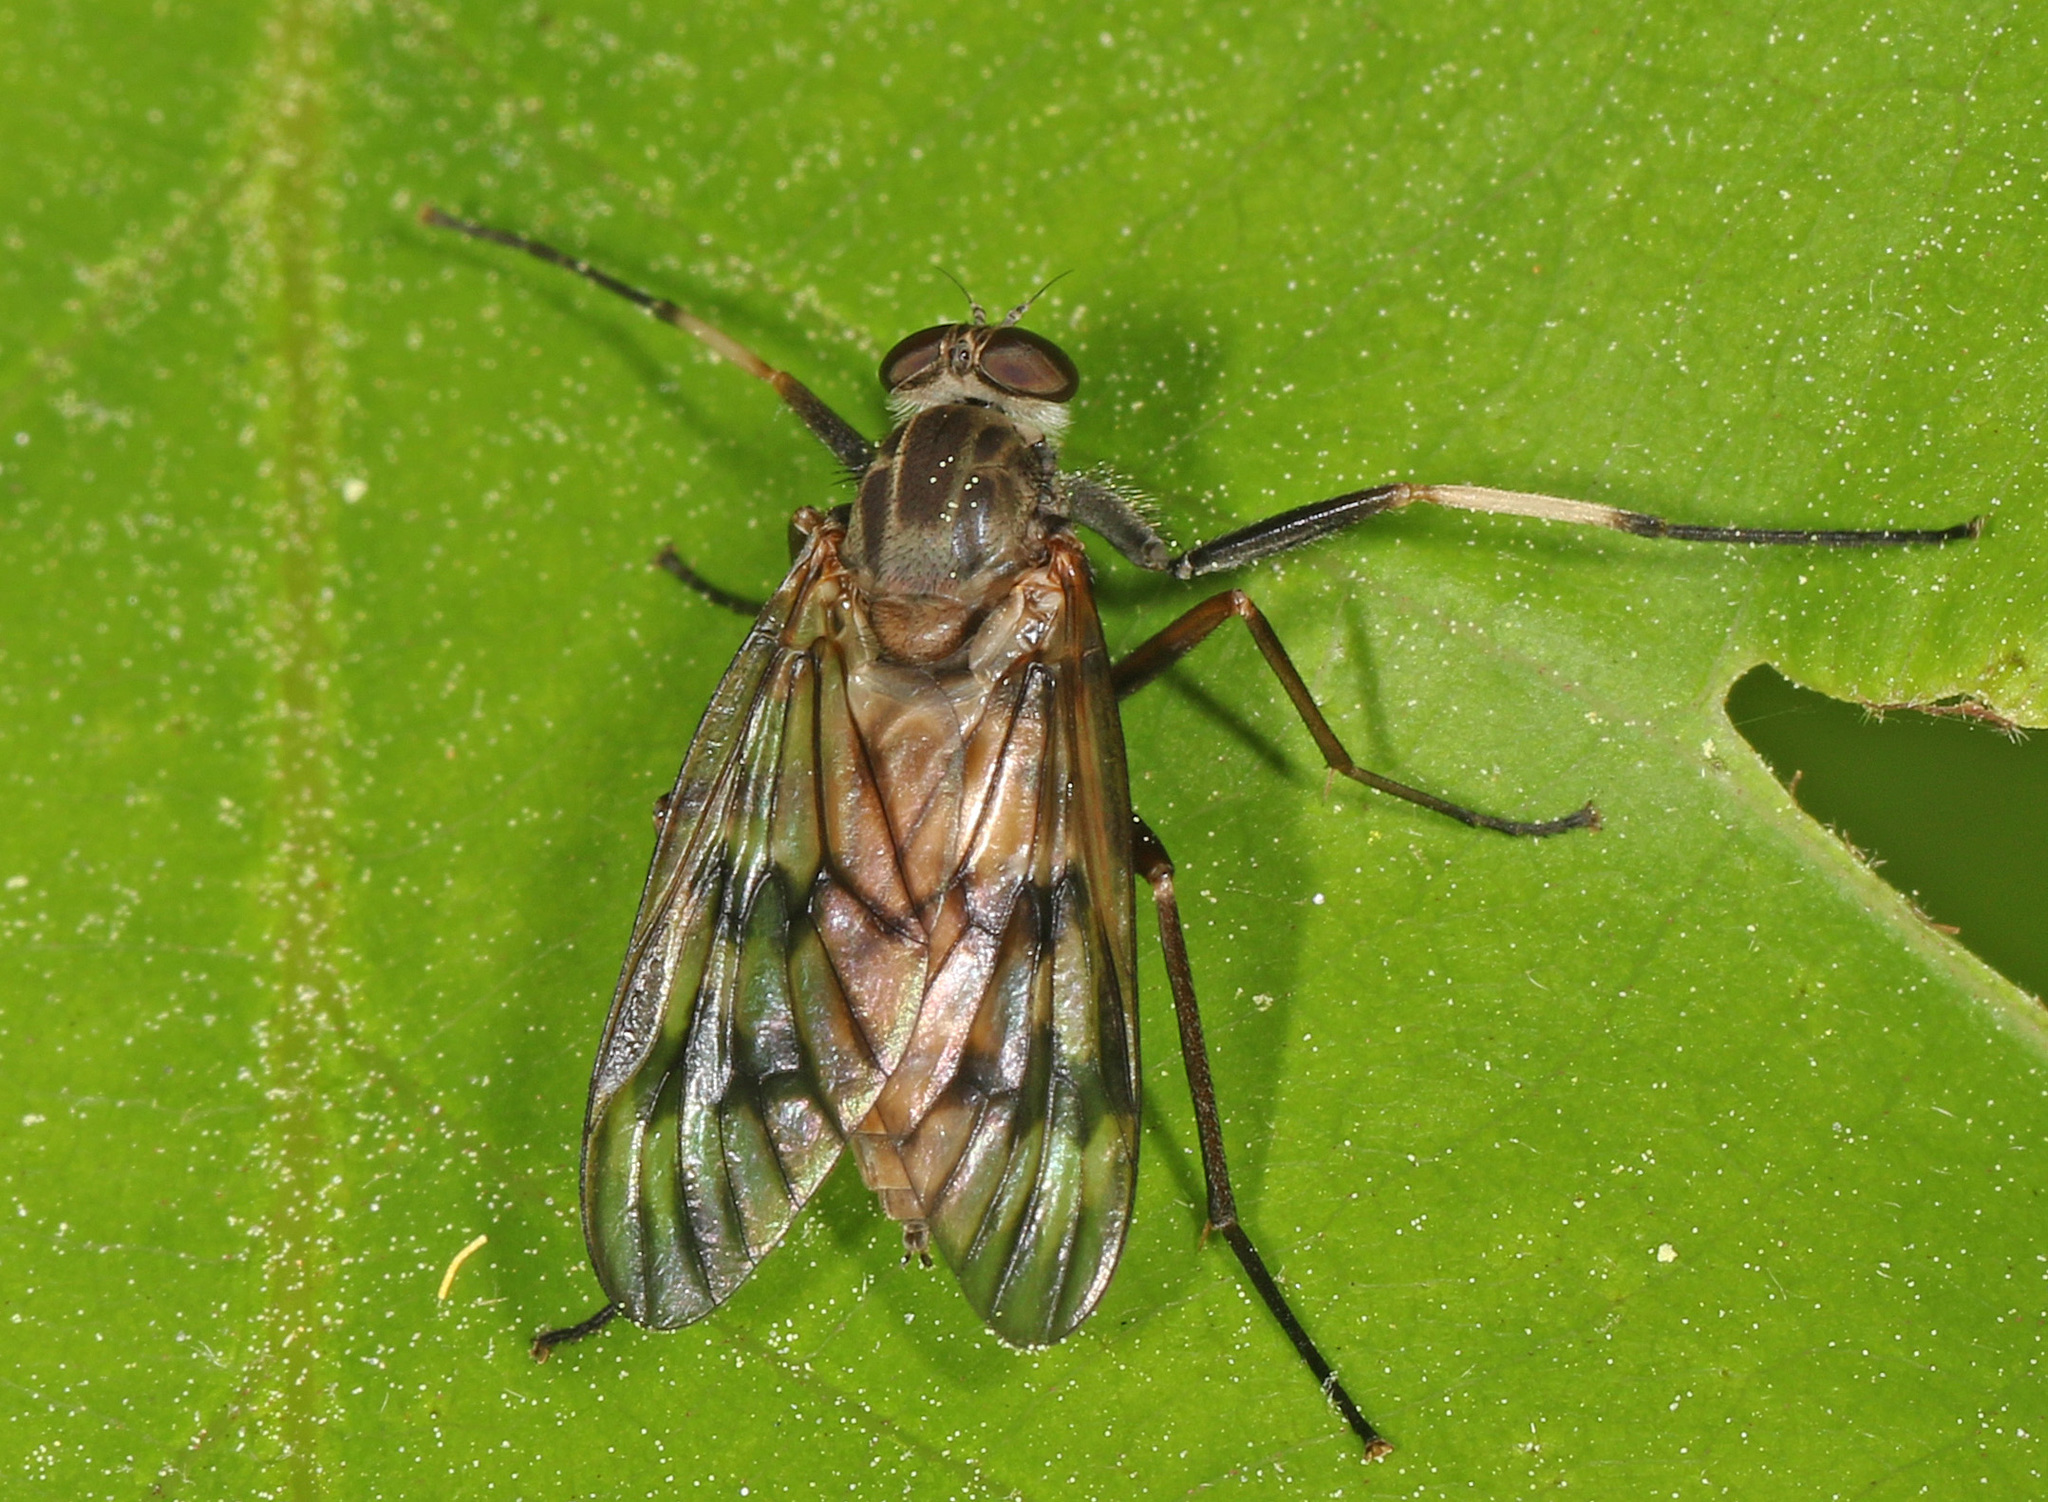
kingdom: Animalia
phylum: Arthropoda
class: Insecta
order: Diptera
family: Rhagionidae
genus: Rhagio
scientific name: Rhagio mystaceus
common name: Common snipe fly
